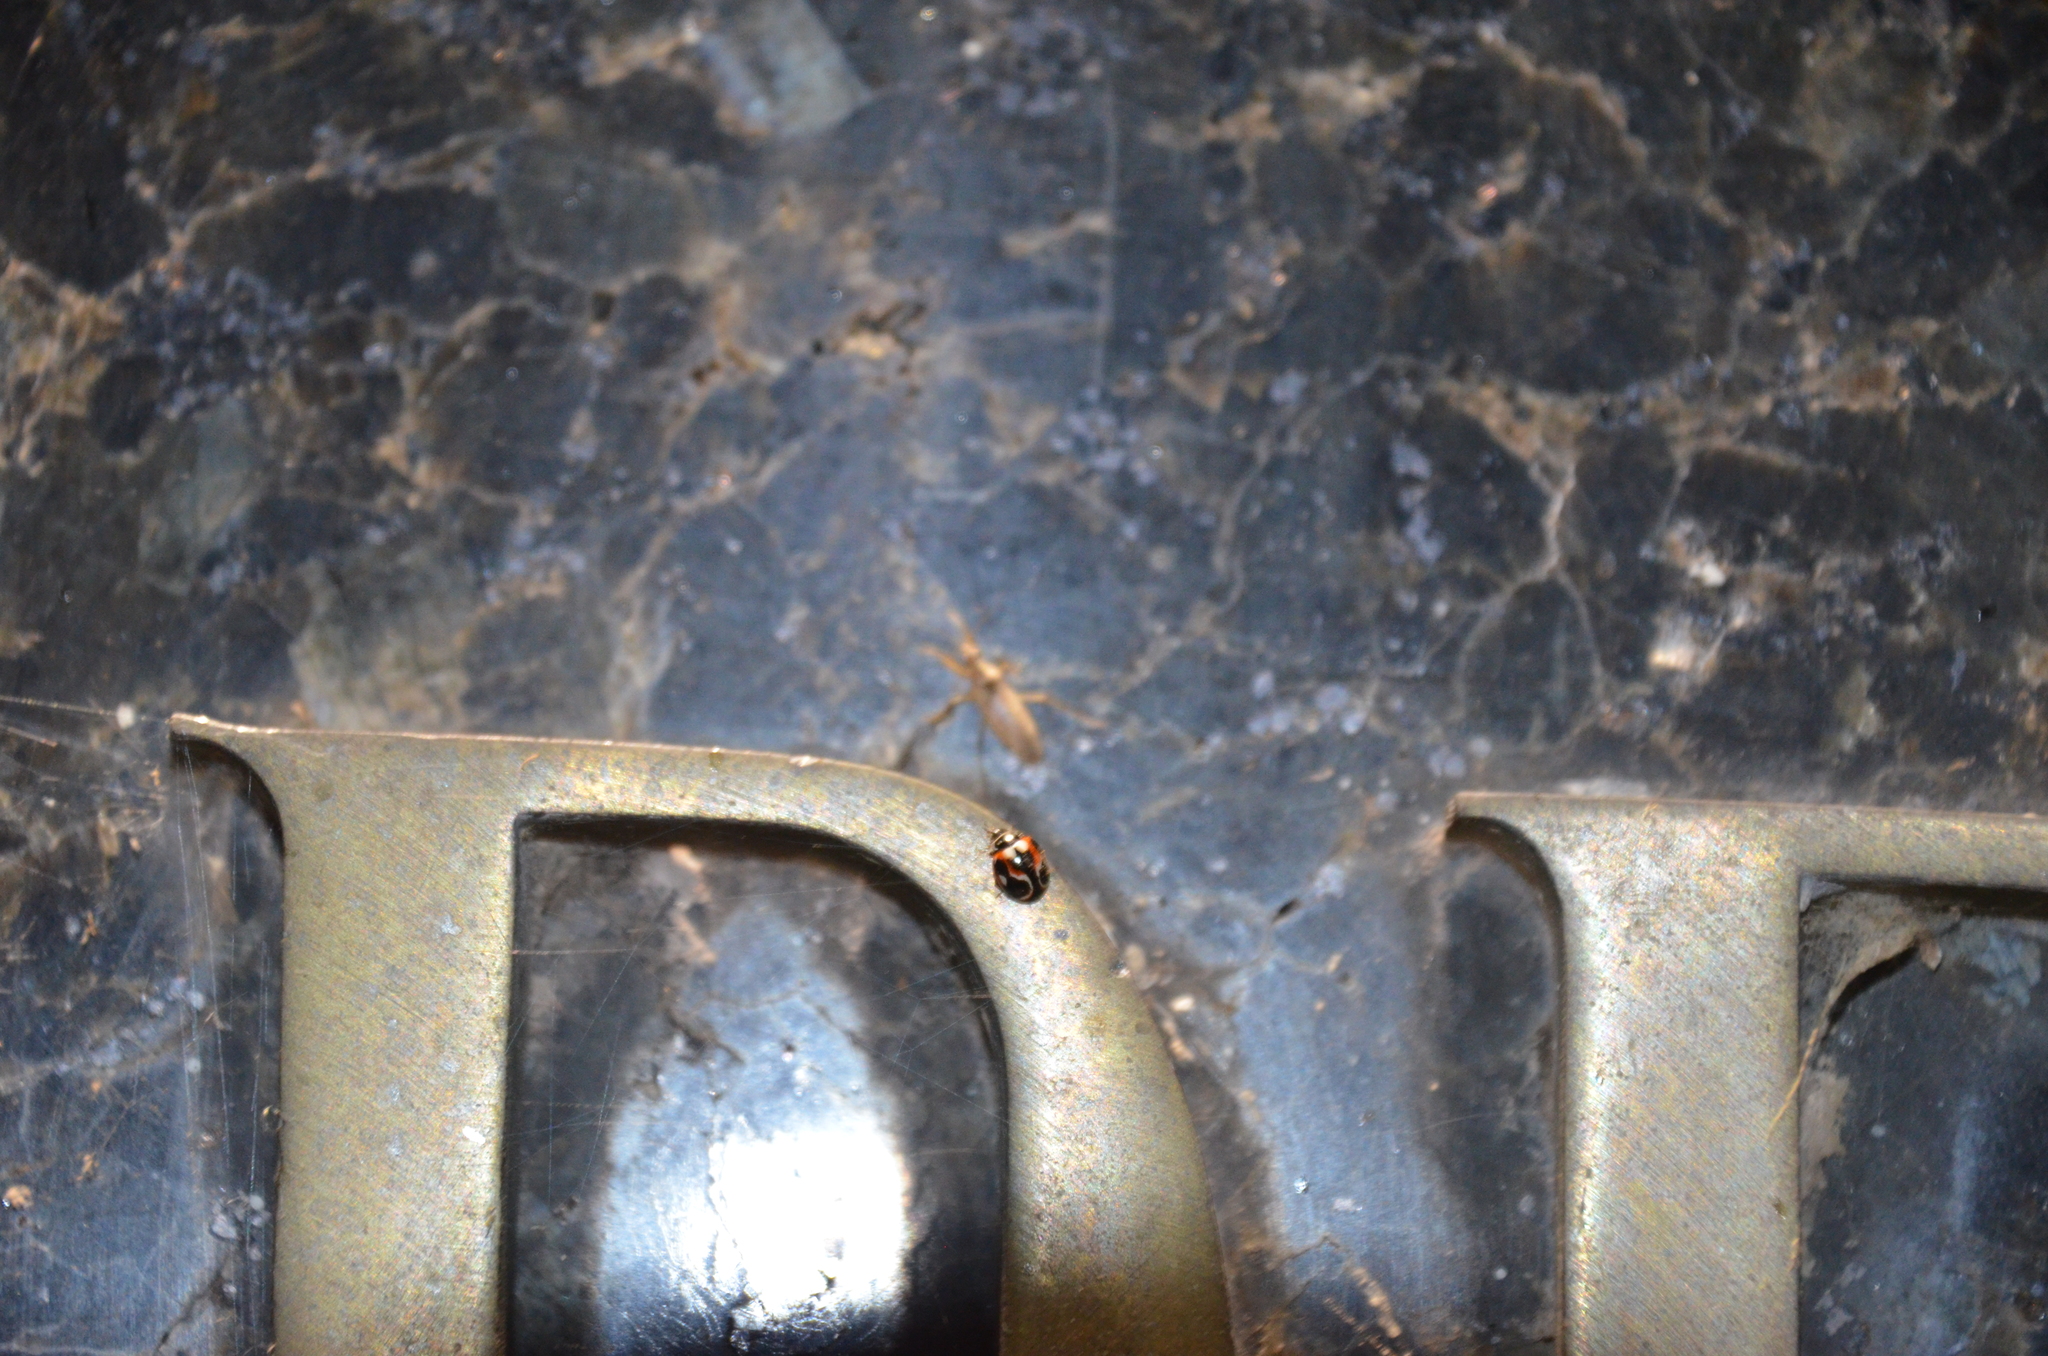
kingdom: Animalia
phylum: Arthropoda
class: Insecta
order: Coleoptera
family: Coccinellidae
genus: Cycloneda
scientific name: Cycloneda ancoralis
